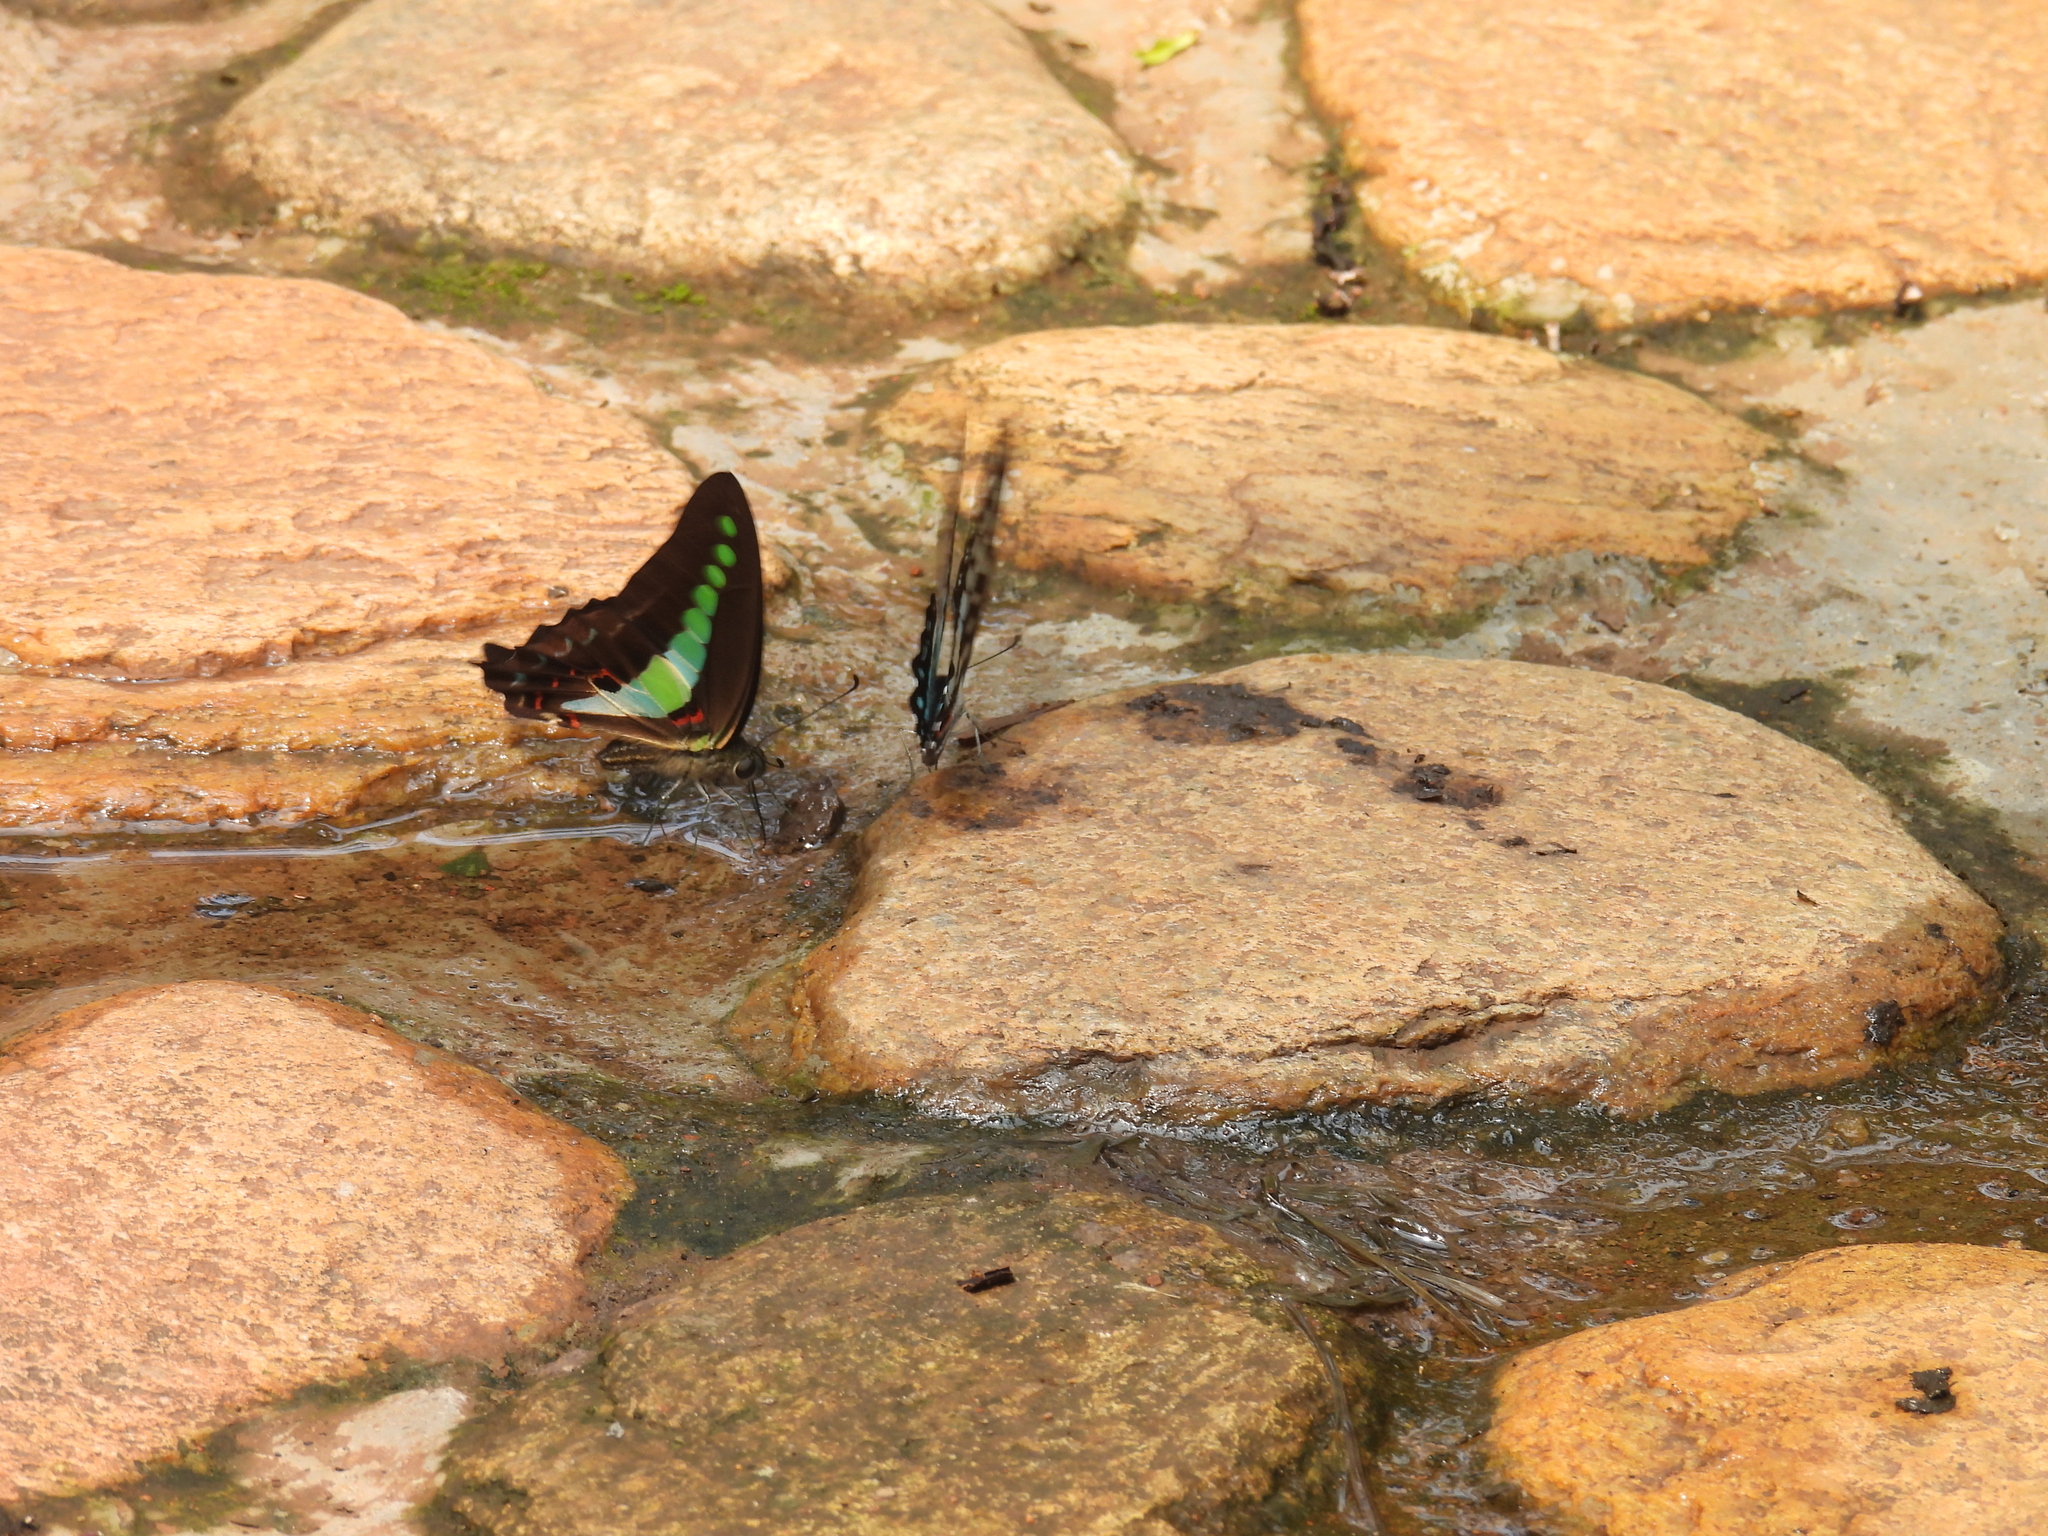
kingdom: Animalia
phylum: Arthropoda
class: Insecta
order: Lepidoptera
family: Papilionidae
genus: Graphium
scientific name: Graphium
